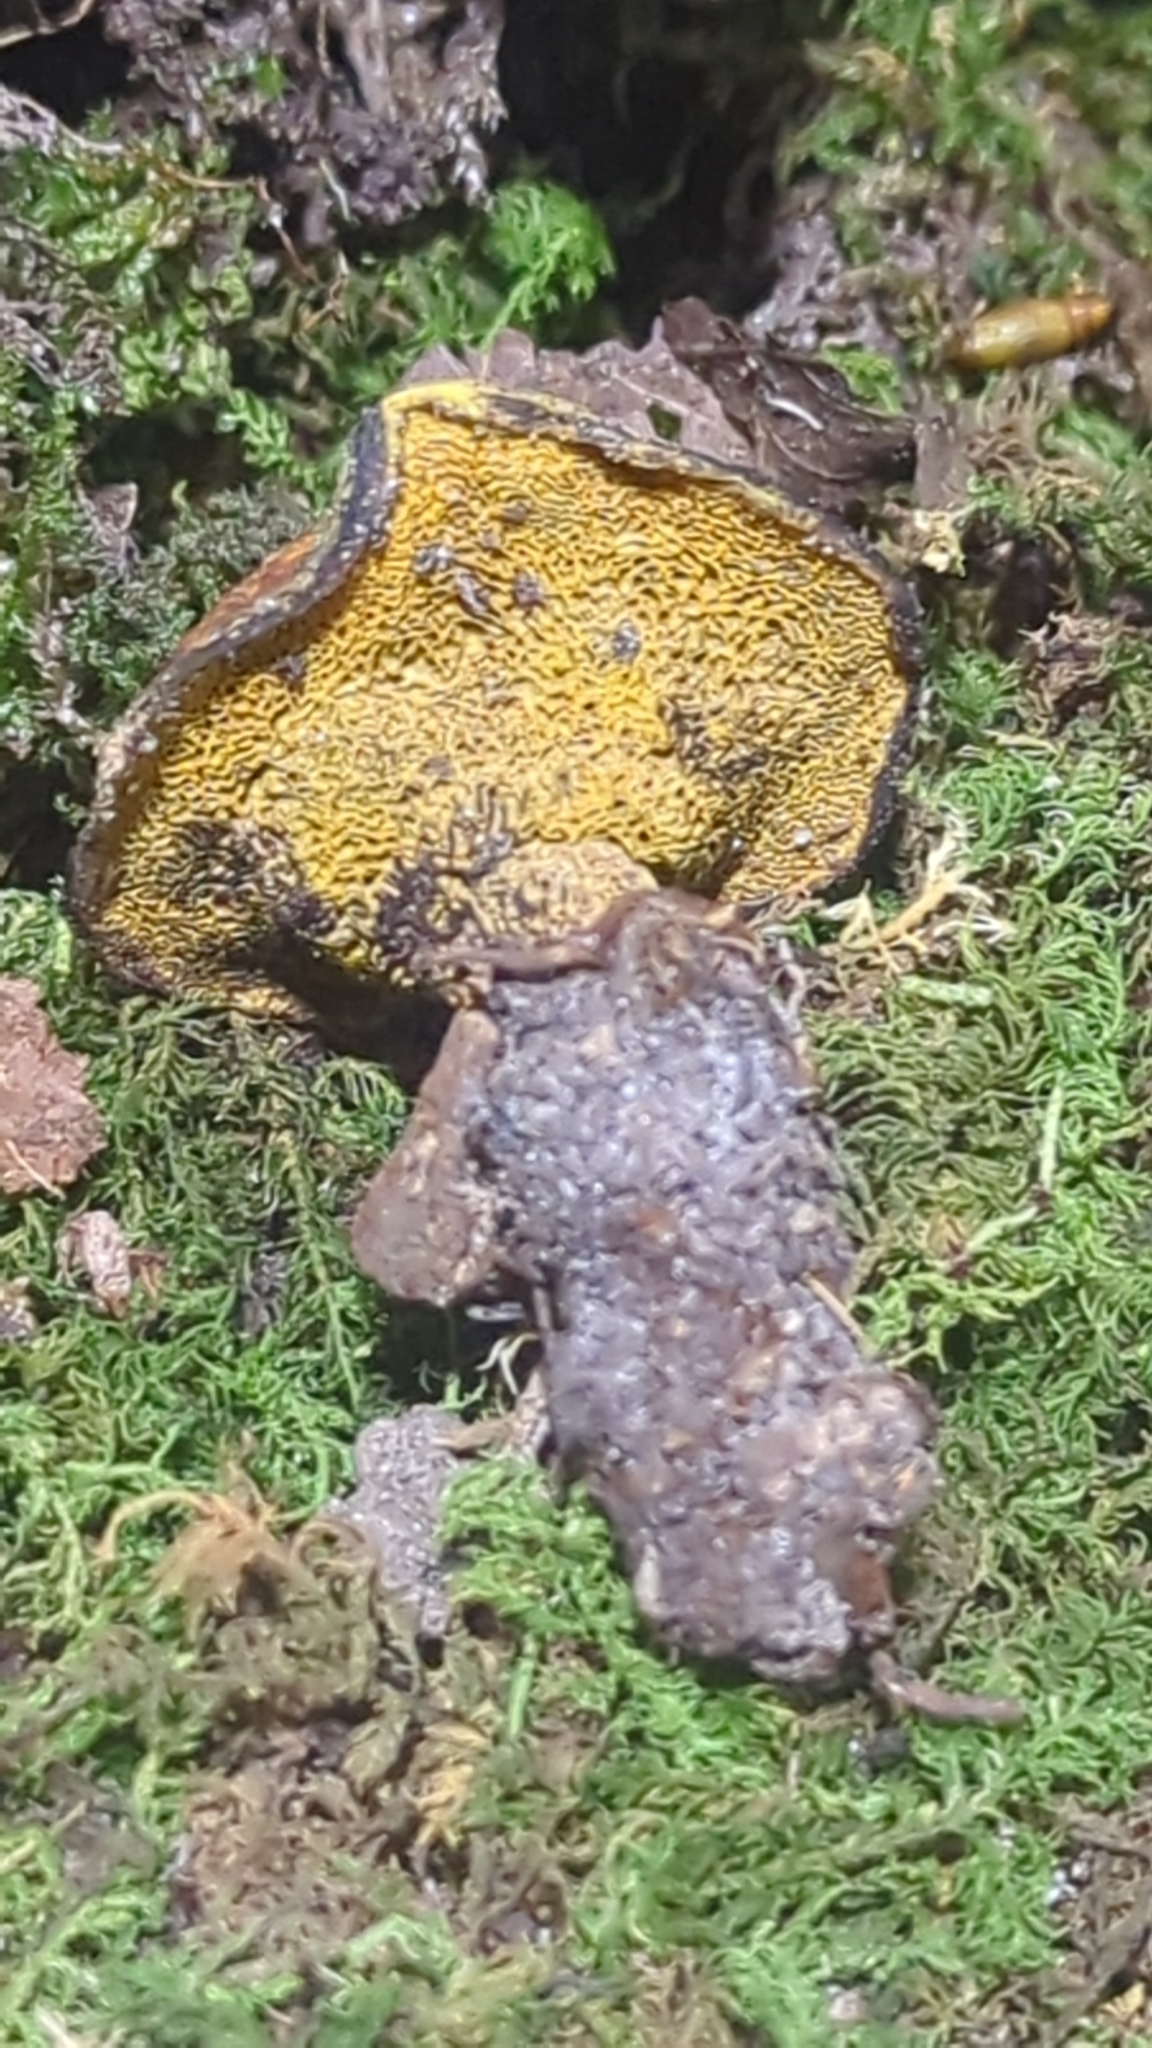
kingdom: Fungi
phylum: Basidiomycota
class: Agaricomycetes
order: Hymenochaetales
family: Hymenochaetaceae
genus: Onnia
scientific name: Onnia subtriquetra
